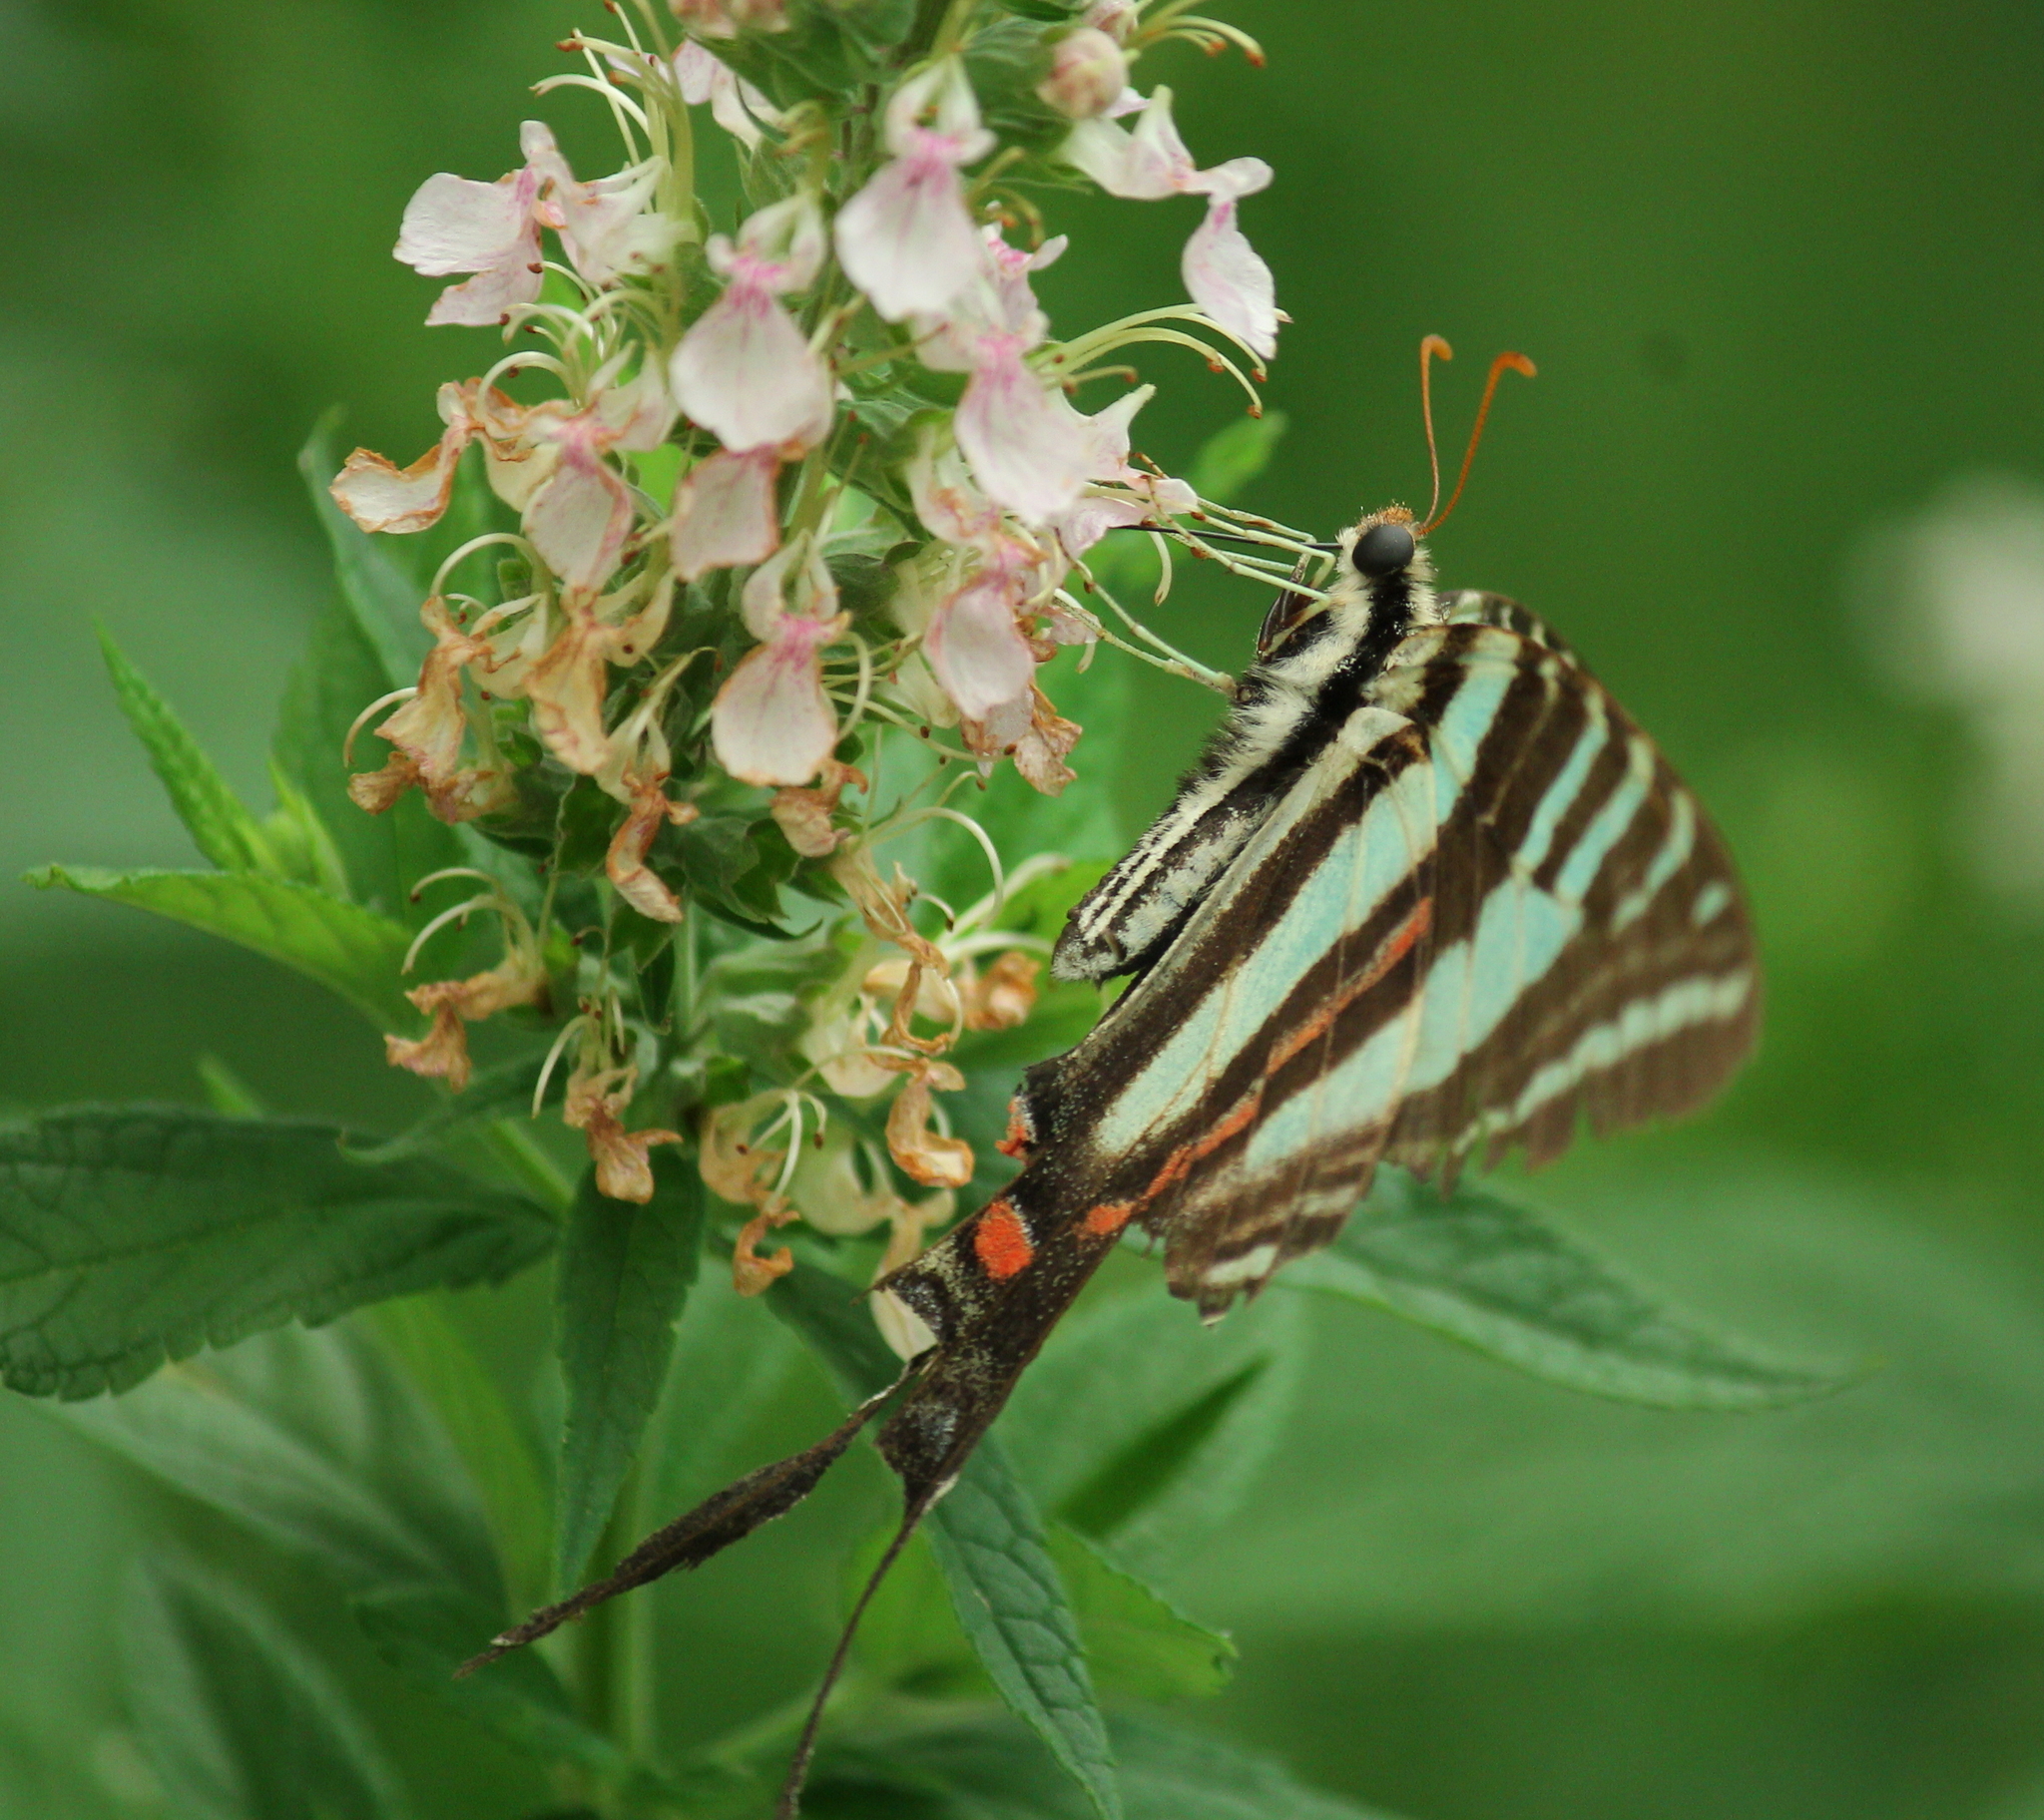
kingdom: Animalia
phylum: Arthropoda
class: Insecta
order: Lepidoptera
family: Papilionidae
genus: Protographium
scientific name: Protographium marcellus
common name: Zebra swallowtail
